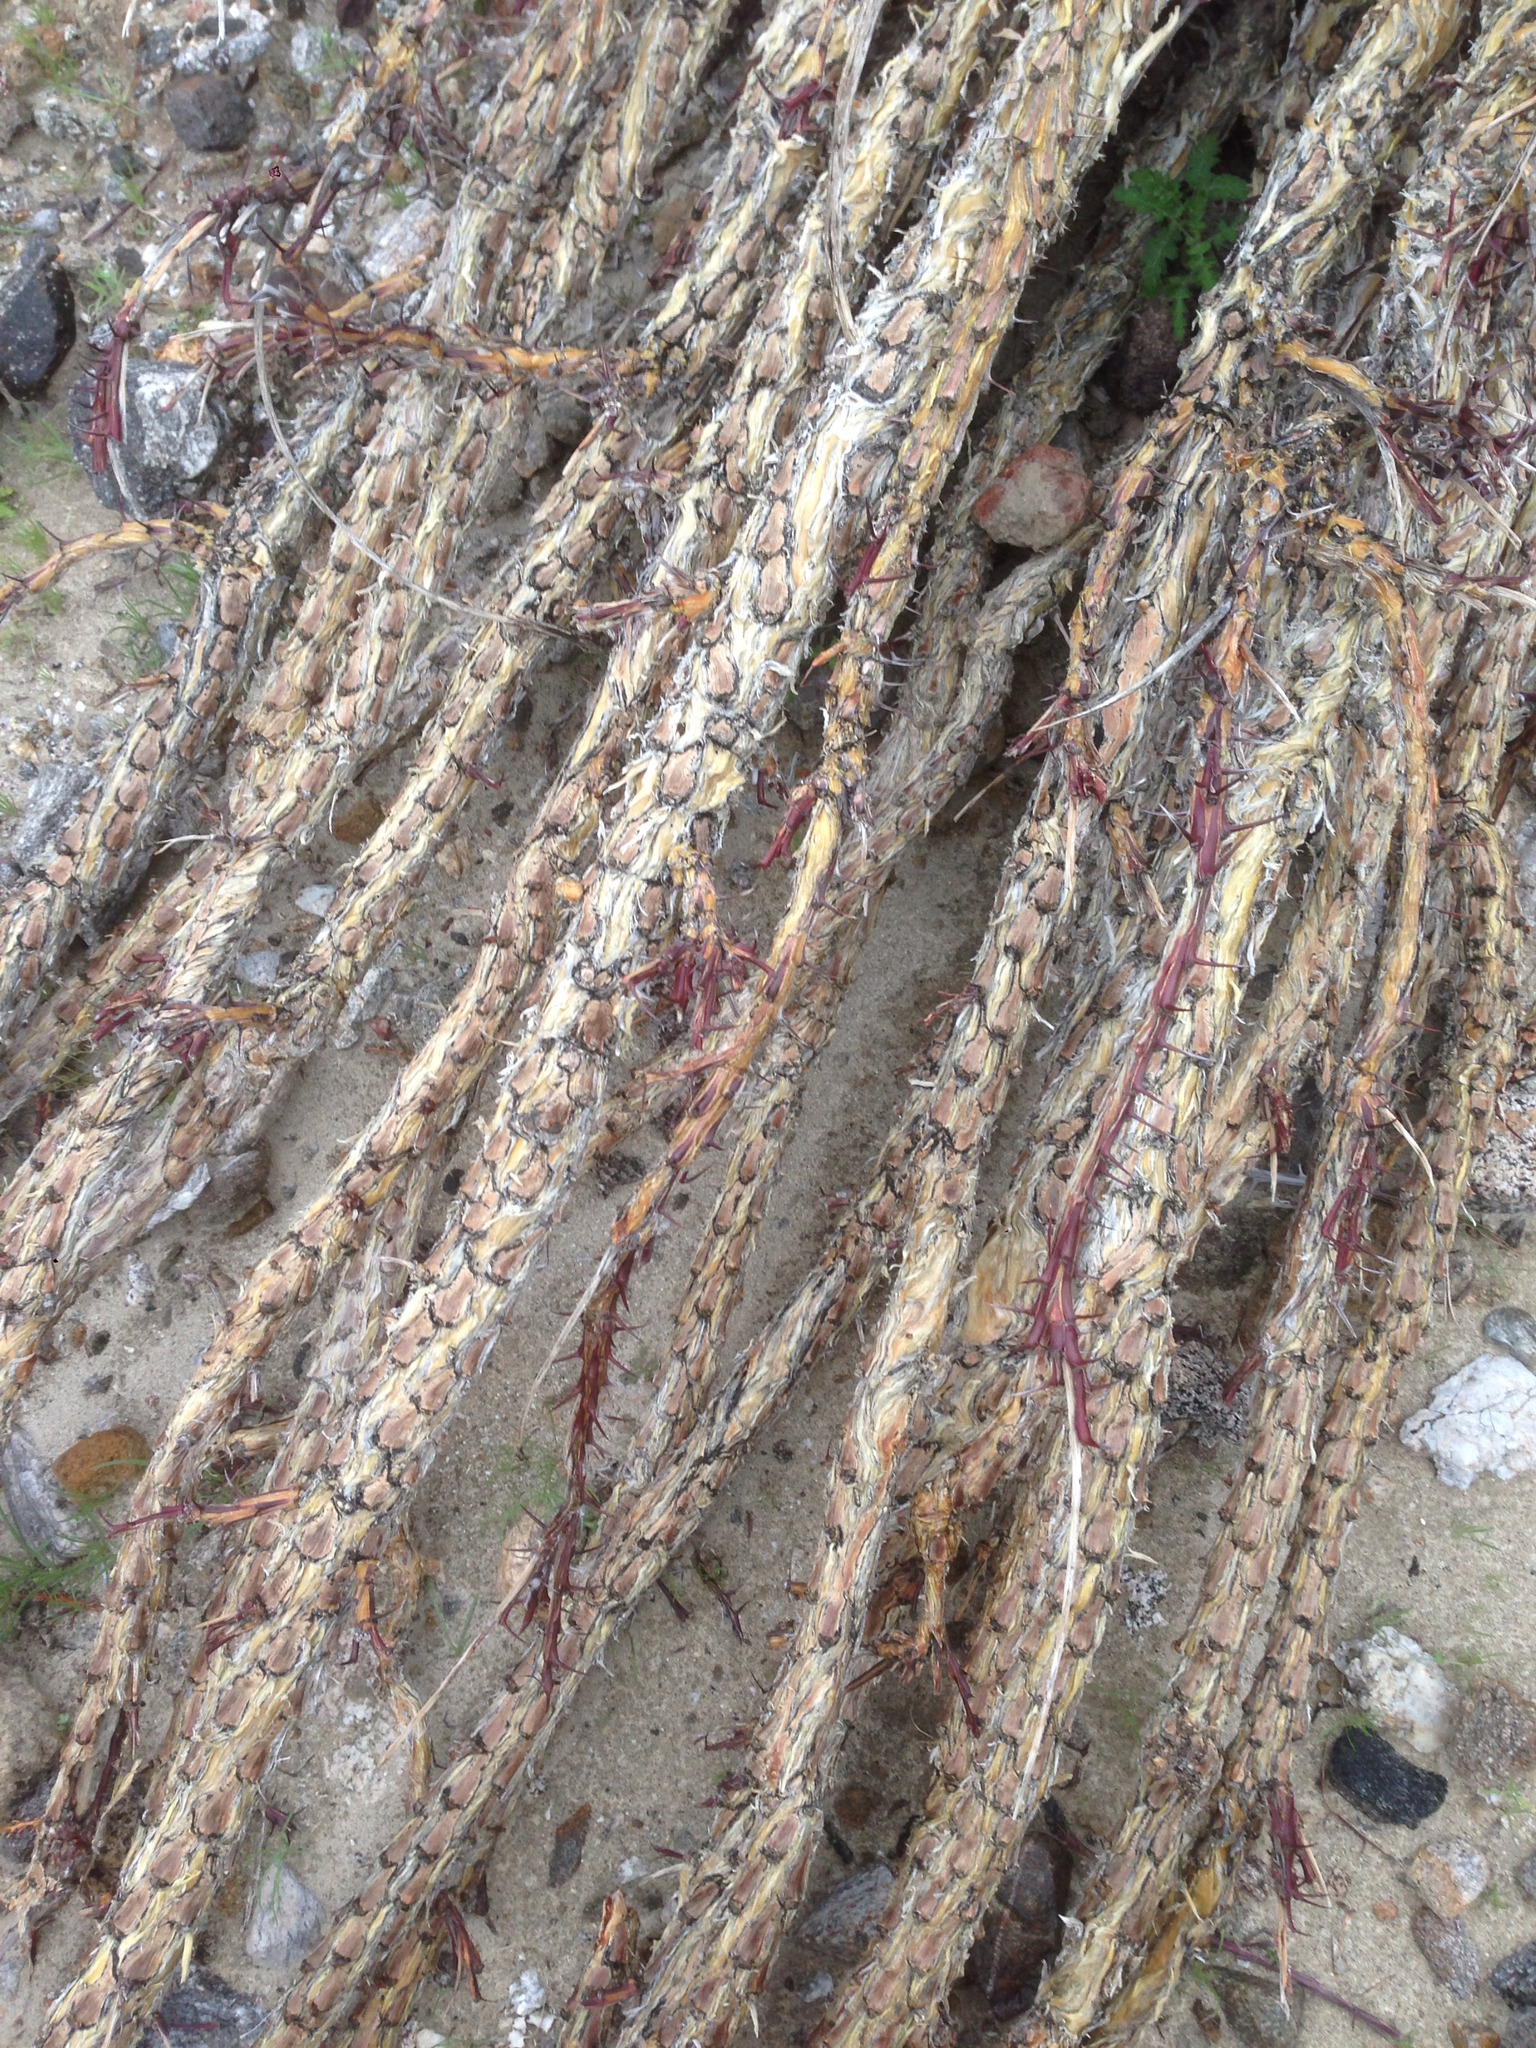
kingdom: Plantae
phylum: Tracheophyta
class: Magnoliopsida
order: Ericales
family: Fouquieriaceae
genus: Fouquieria
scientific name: Fouquieria splendens
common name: Vine-cactus
